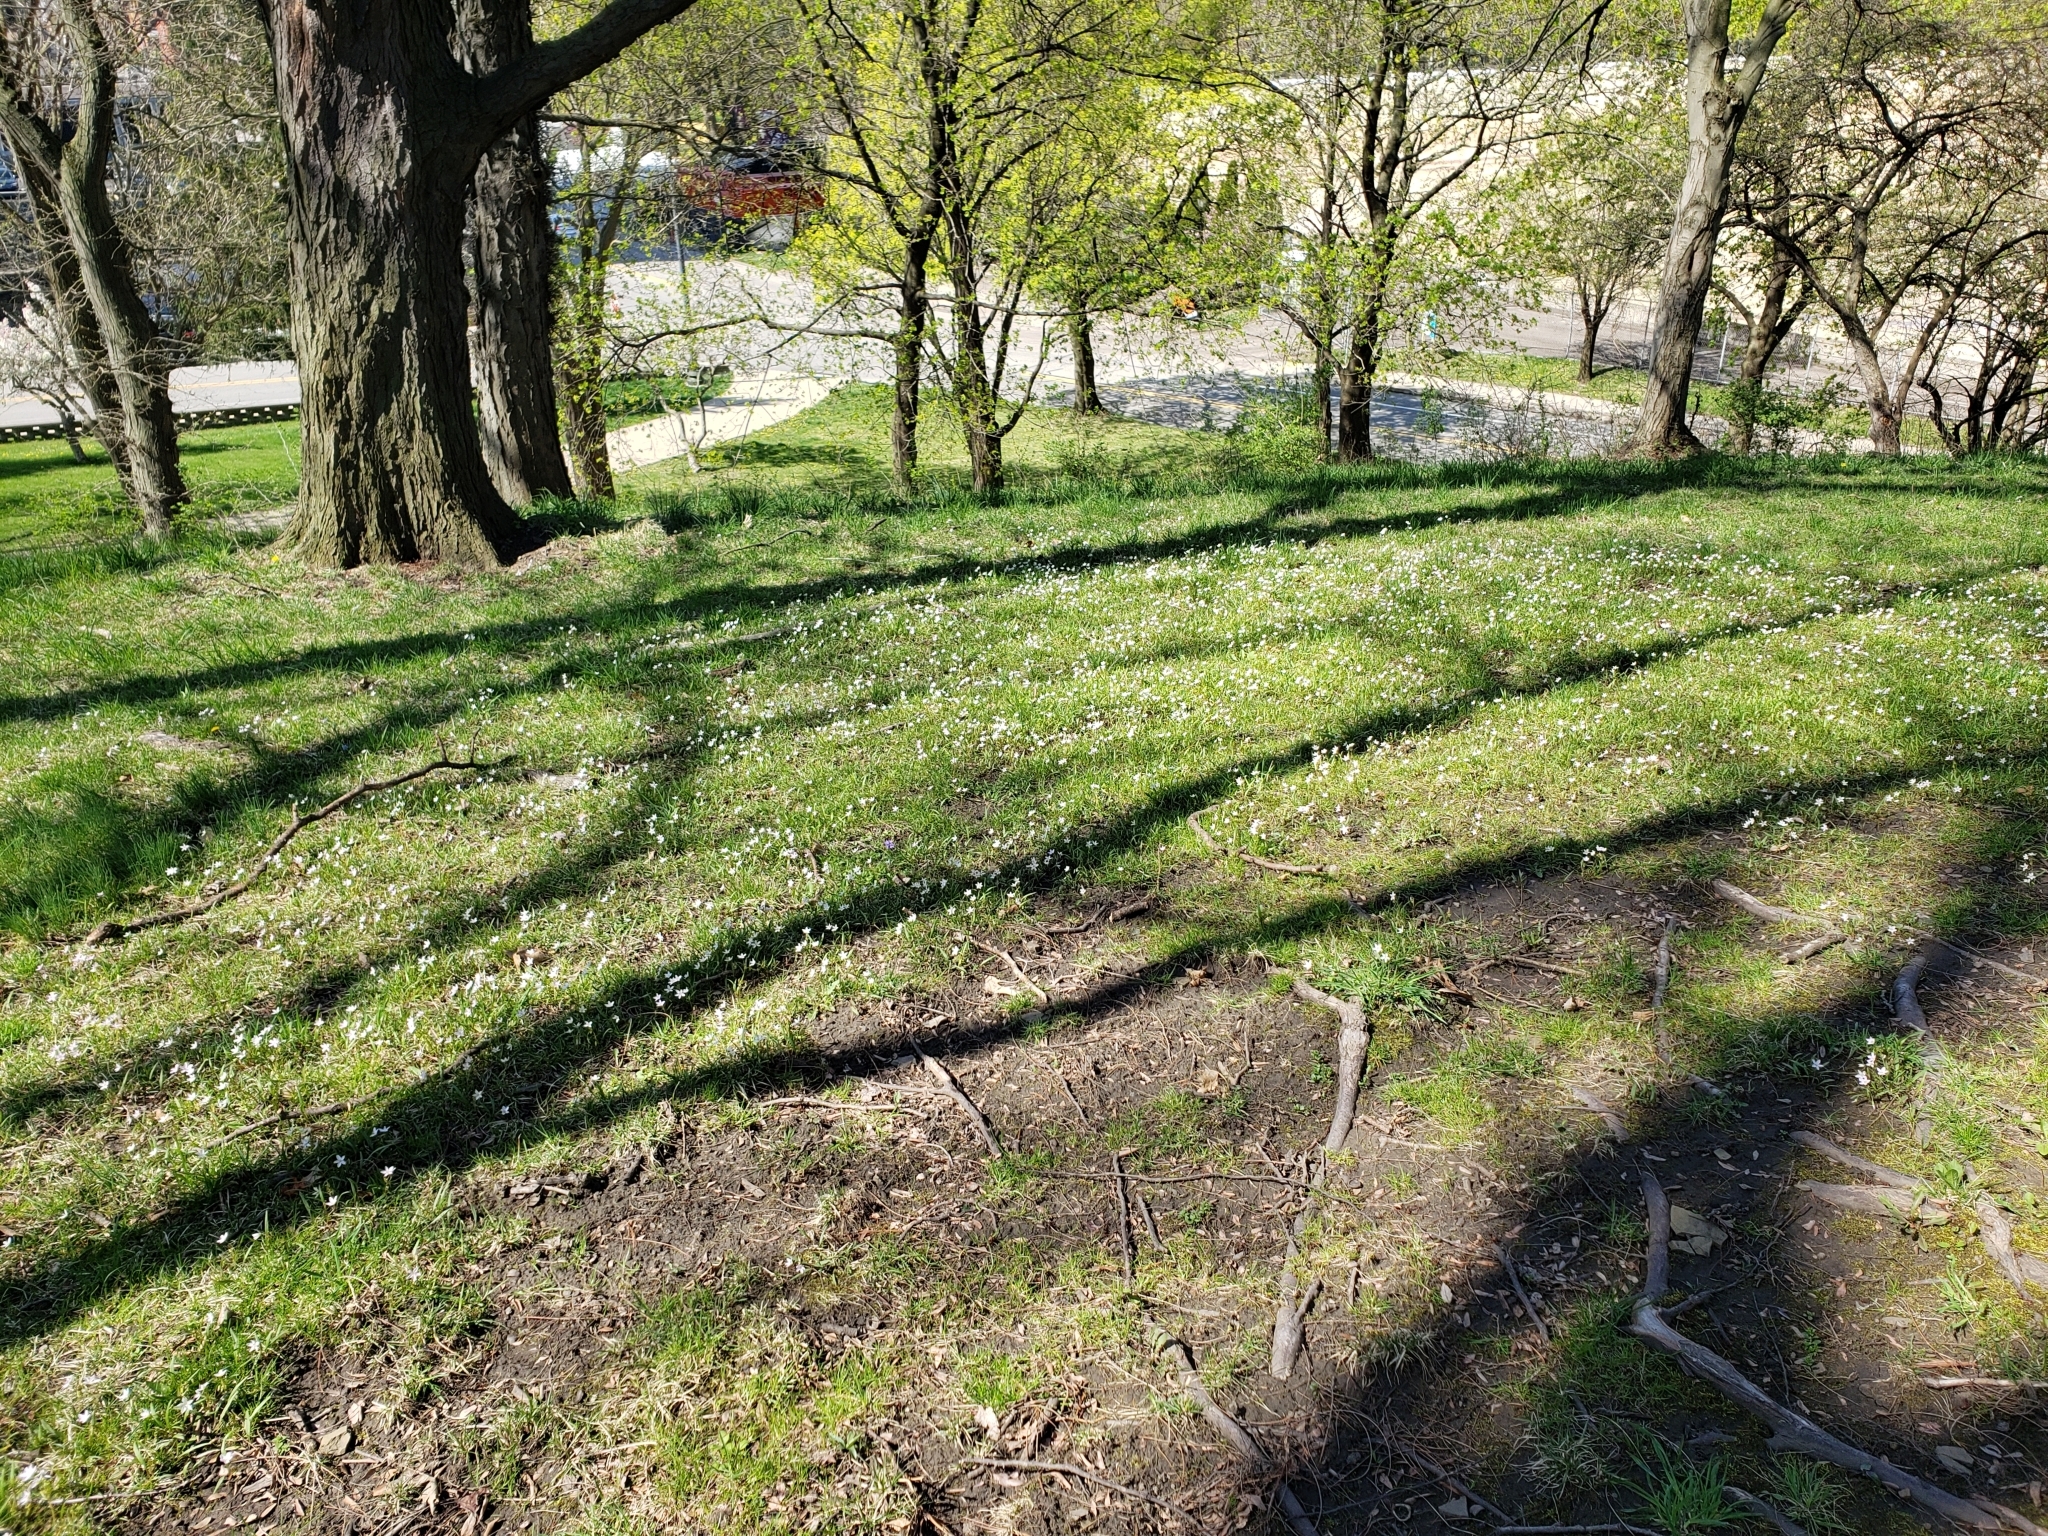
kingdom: Plantae
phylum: Tracheophyta
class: Magnoliopsida
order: Caryophyllales
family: Montiaceae
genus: Claytonia
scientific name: Claytonia virginica
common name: Virginia springbeauty
